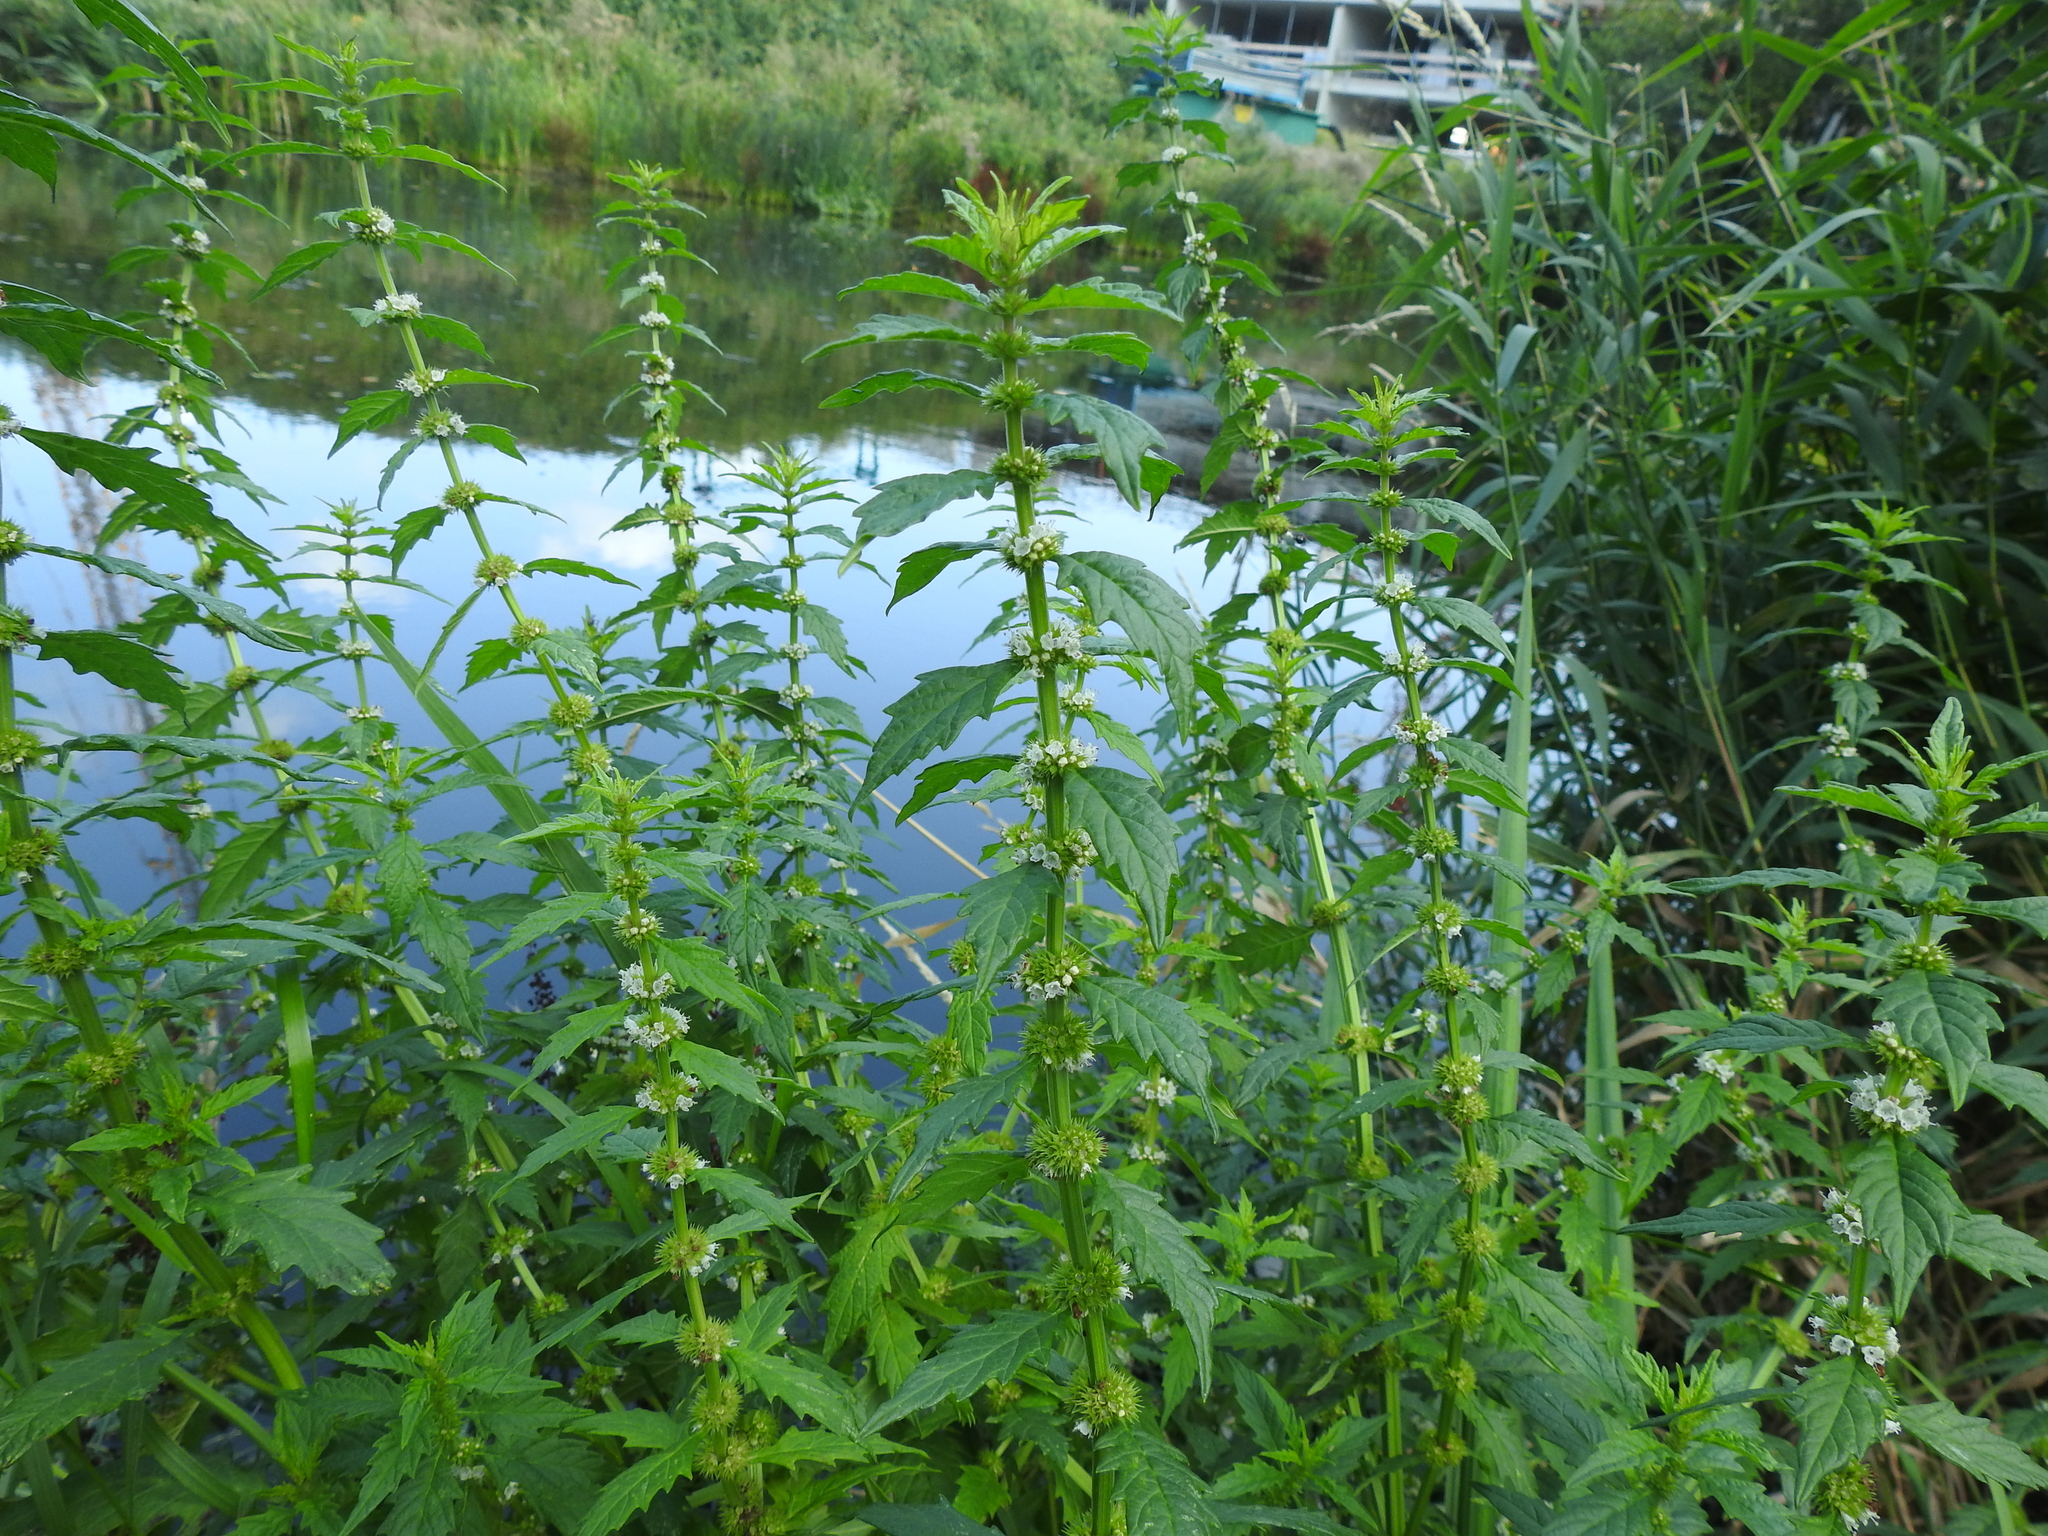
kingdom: Plantae
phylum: Tracheophyta
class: Magnoliopsida
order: Lamiales
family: Lamiaceae
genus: Lycopus
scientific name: Lycopus europaeus
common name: European bugleweed
